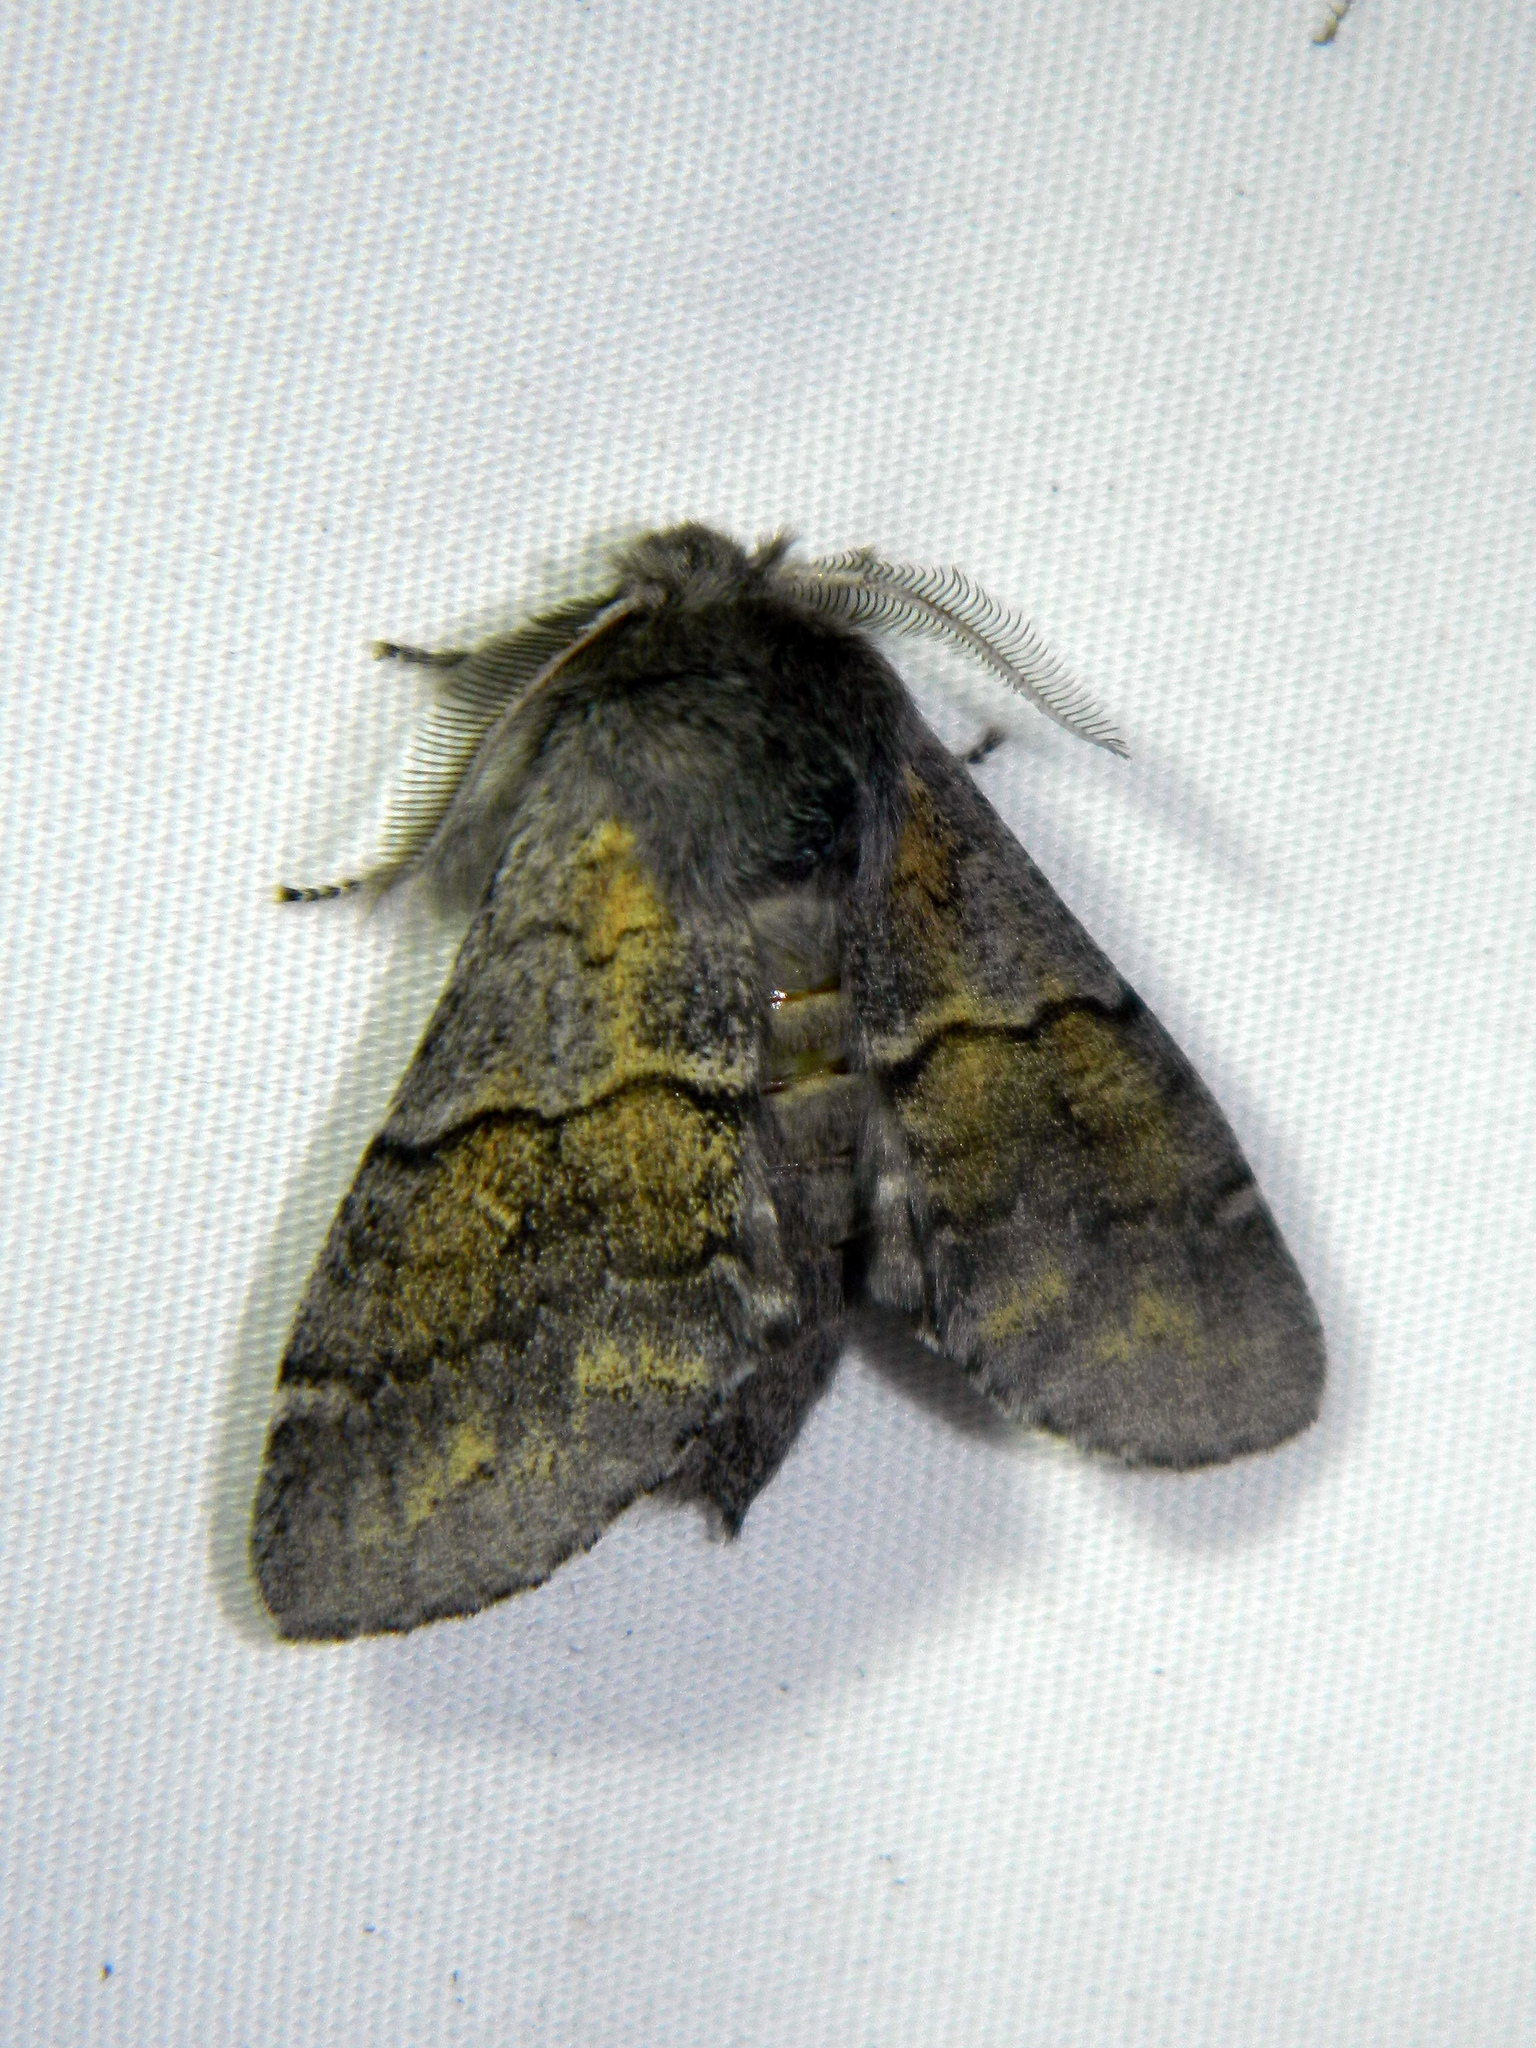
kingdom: Animalia
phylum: Arthropoda
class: Insecta
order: Lepidoptera
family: Notodontidae
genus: Gluphisia
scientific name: Gluphisia lintneri
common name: Lintner's gluphisia moth
